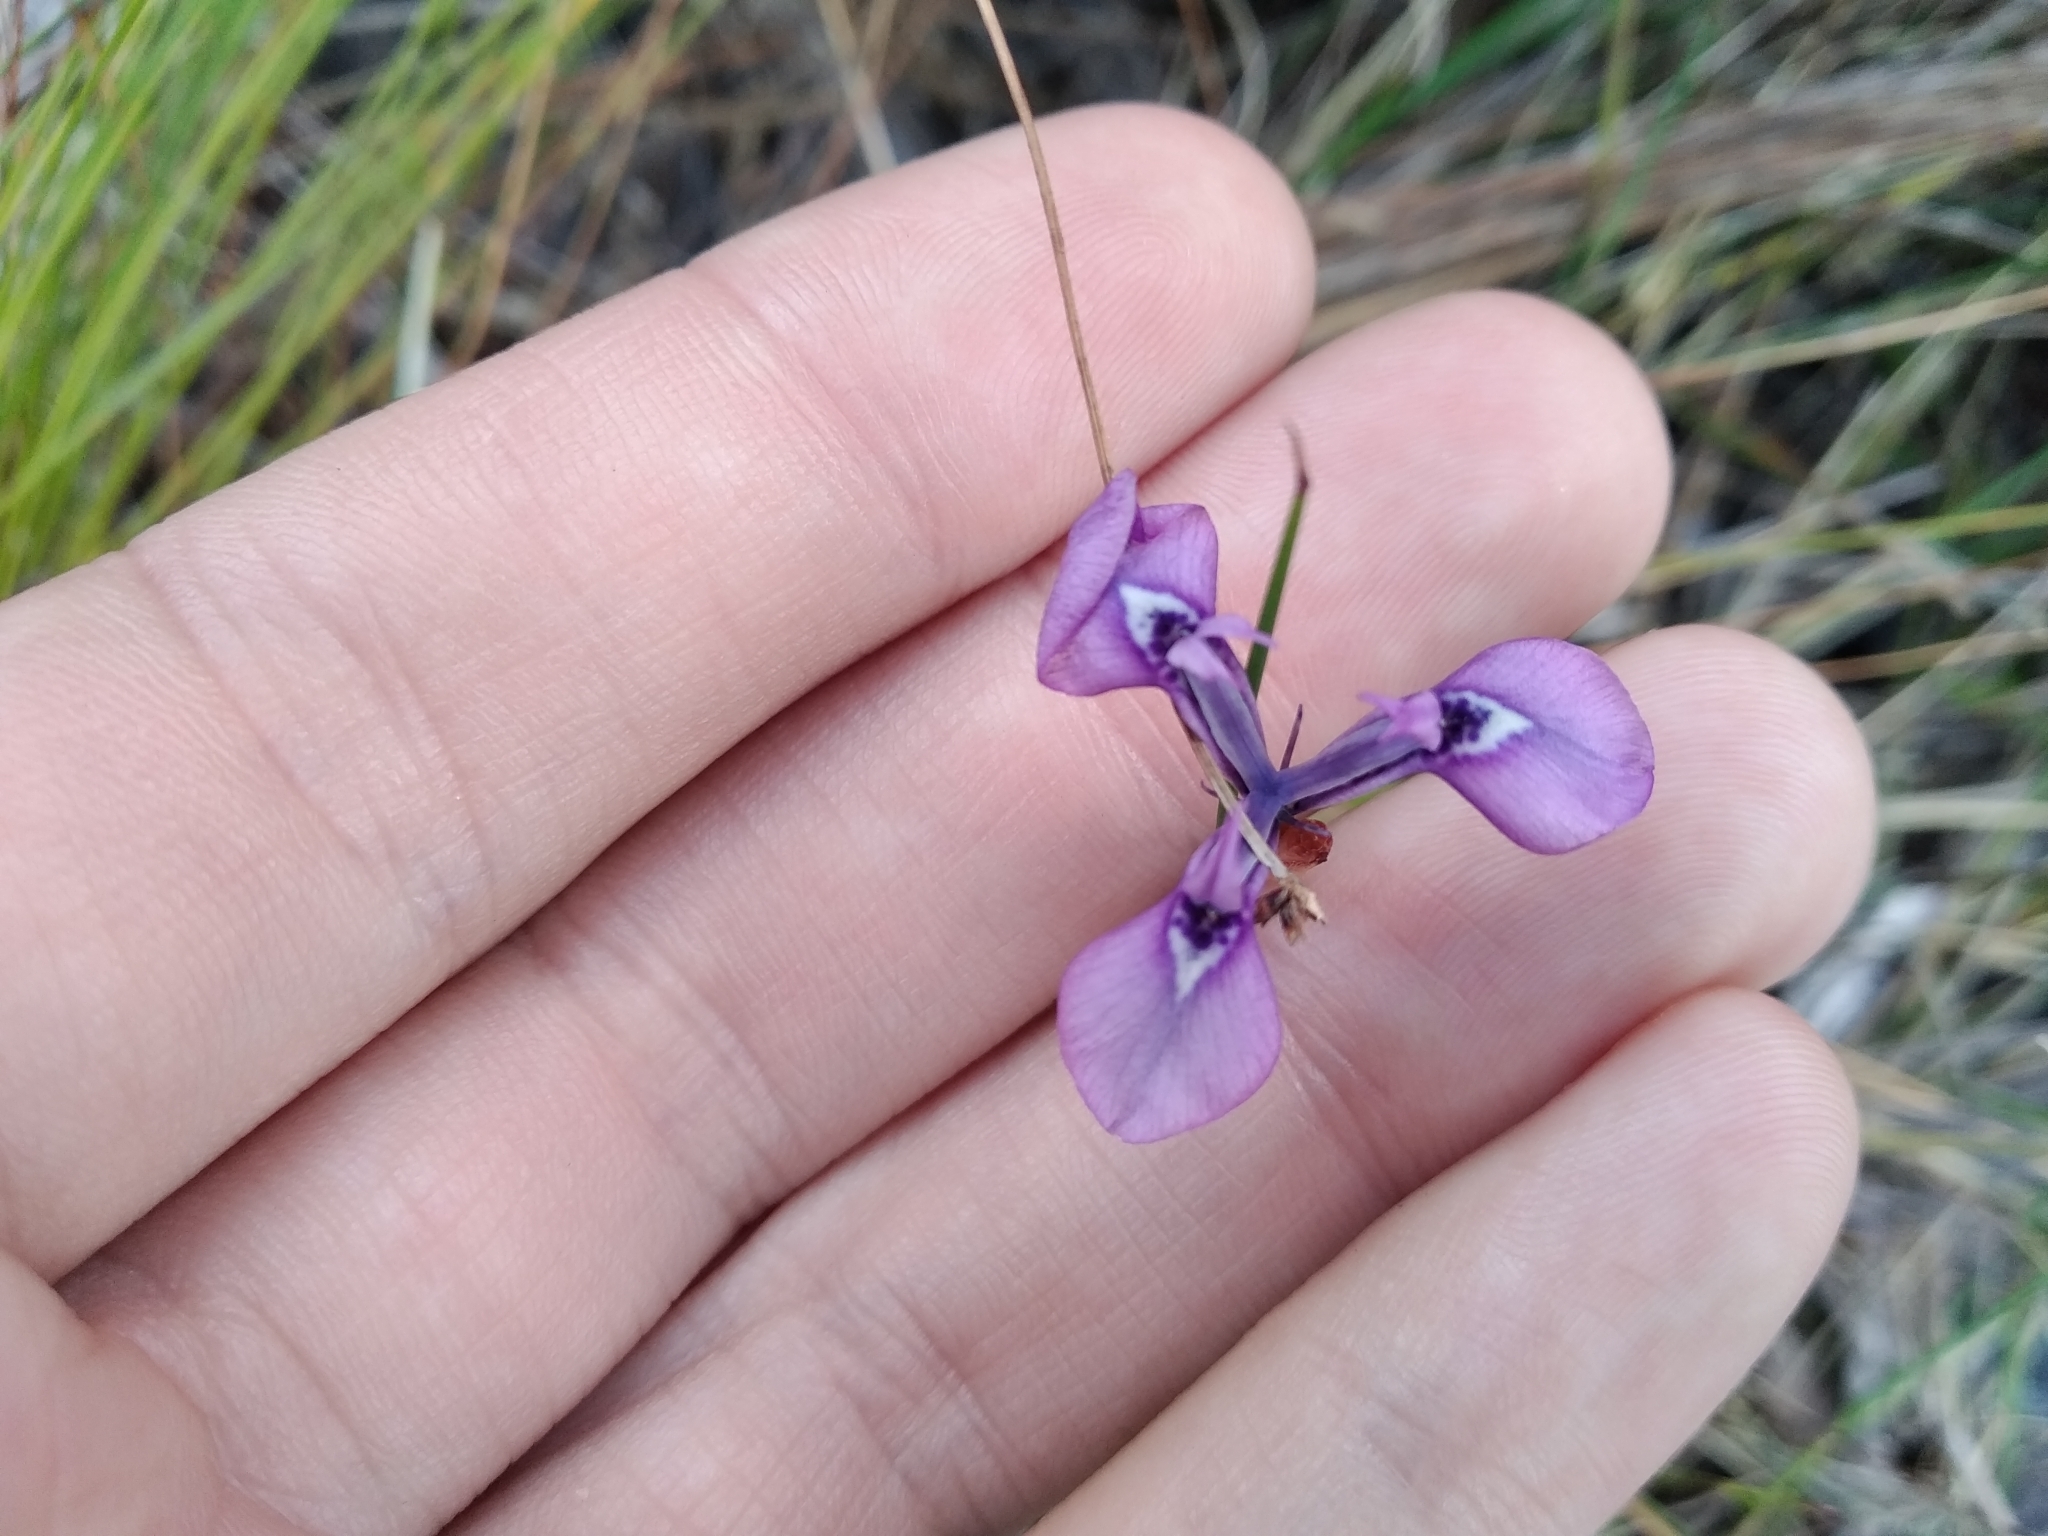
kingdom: Plantae
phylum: Tracheophyta
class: Liliopsida
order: Asparagales
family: Iridaceae
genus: Moraea
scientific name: Moraea tripetala
